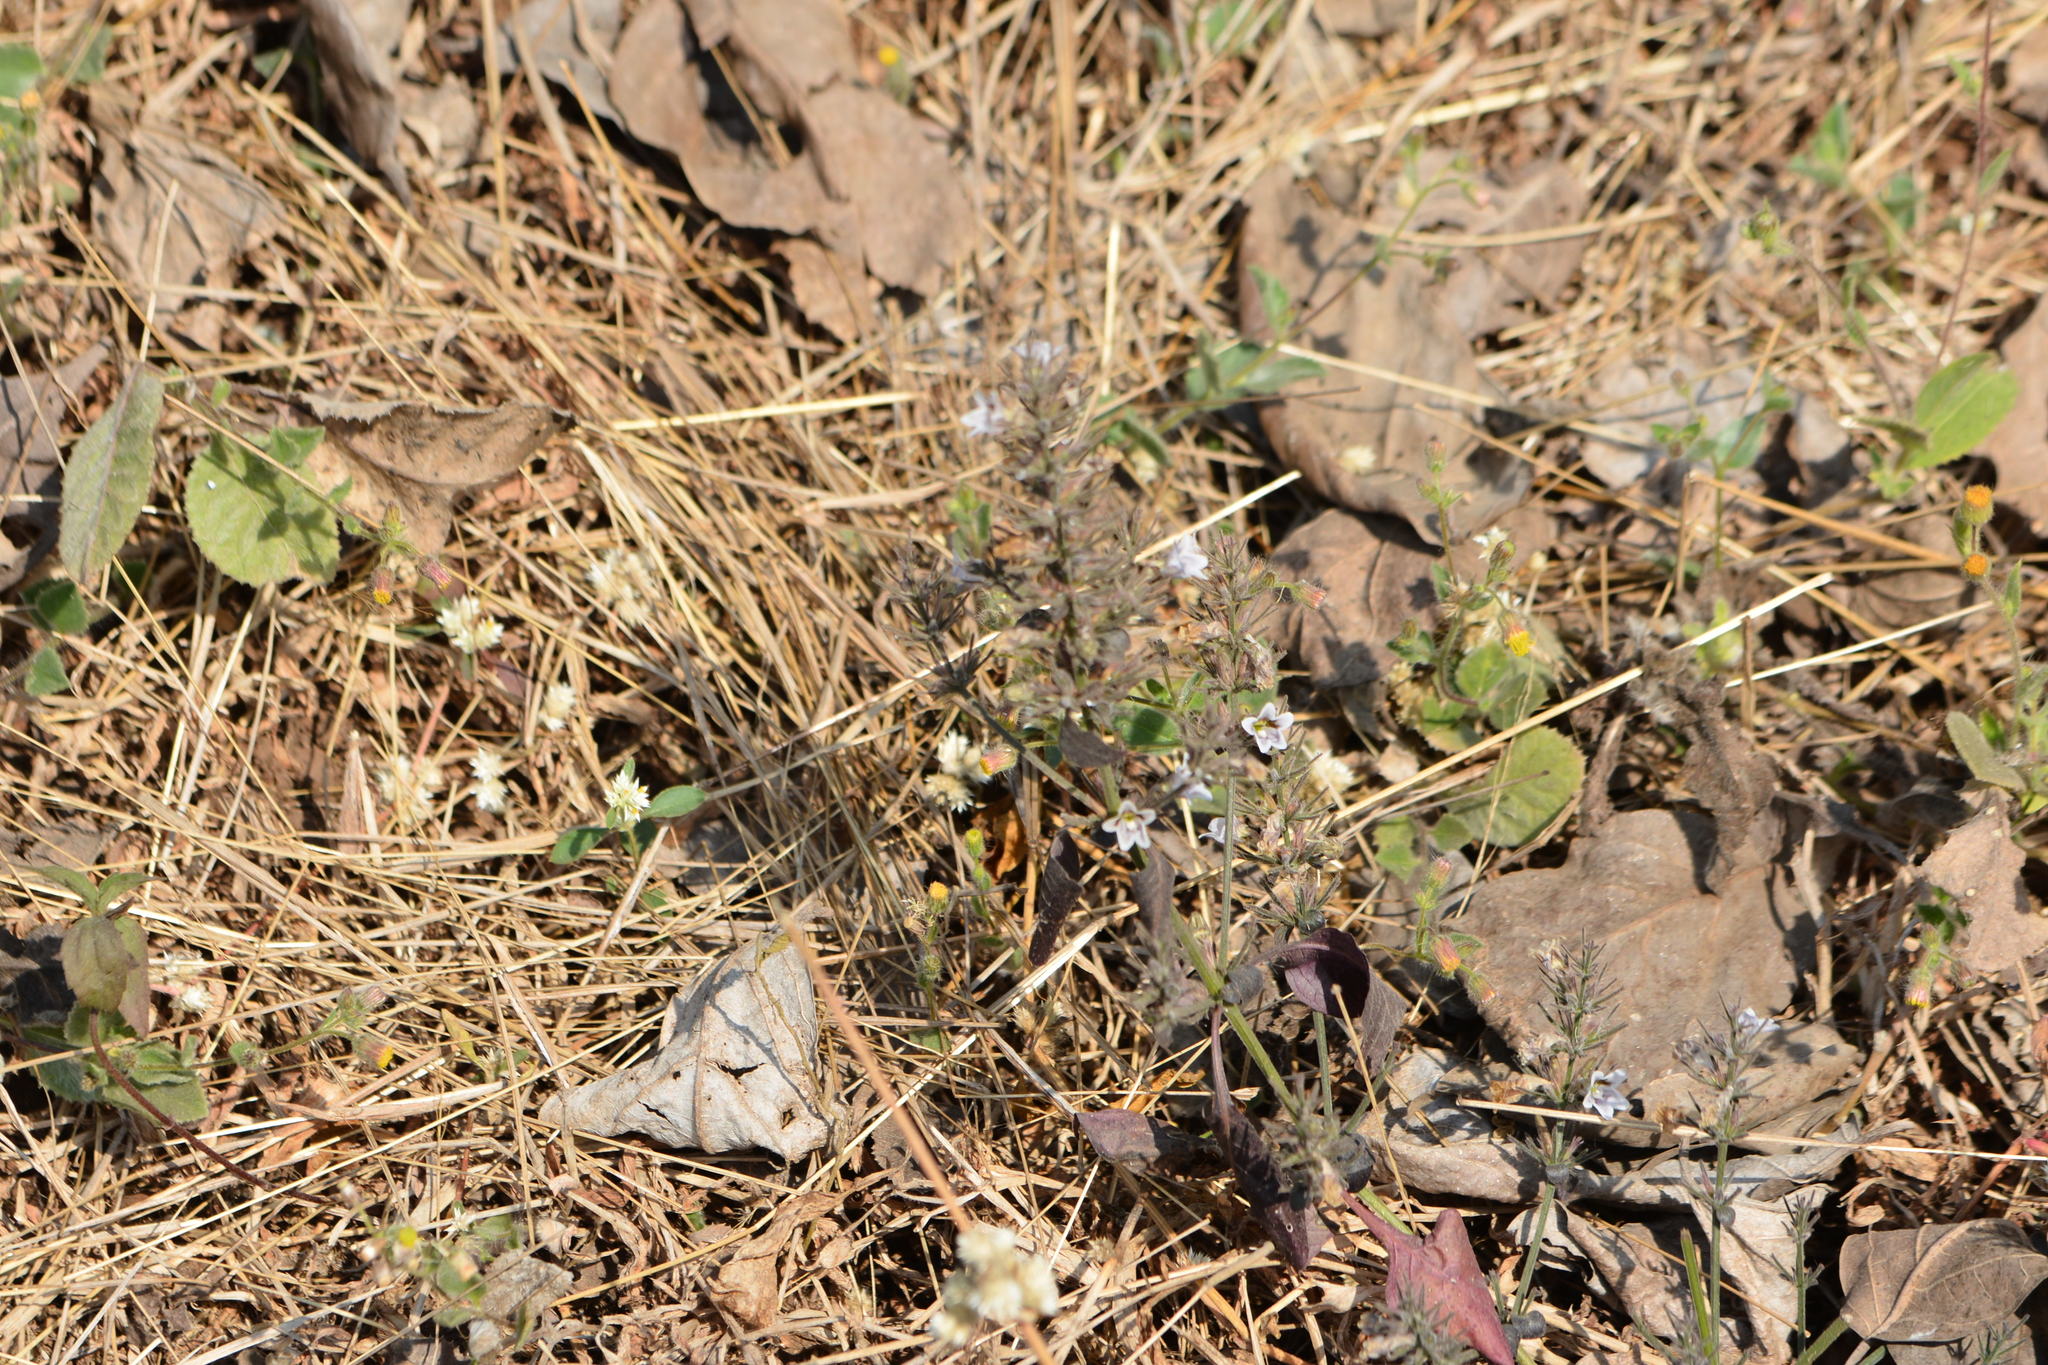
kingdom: Plantae
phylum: Tracheophyta
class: Magnoliopsida
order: Lamiales
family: Acanthaceae
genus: Haplanthodes
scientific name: Haplanthodes tentaculatus
